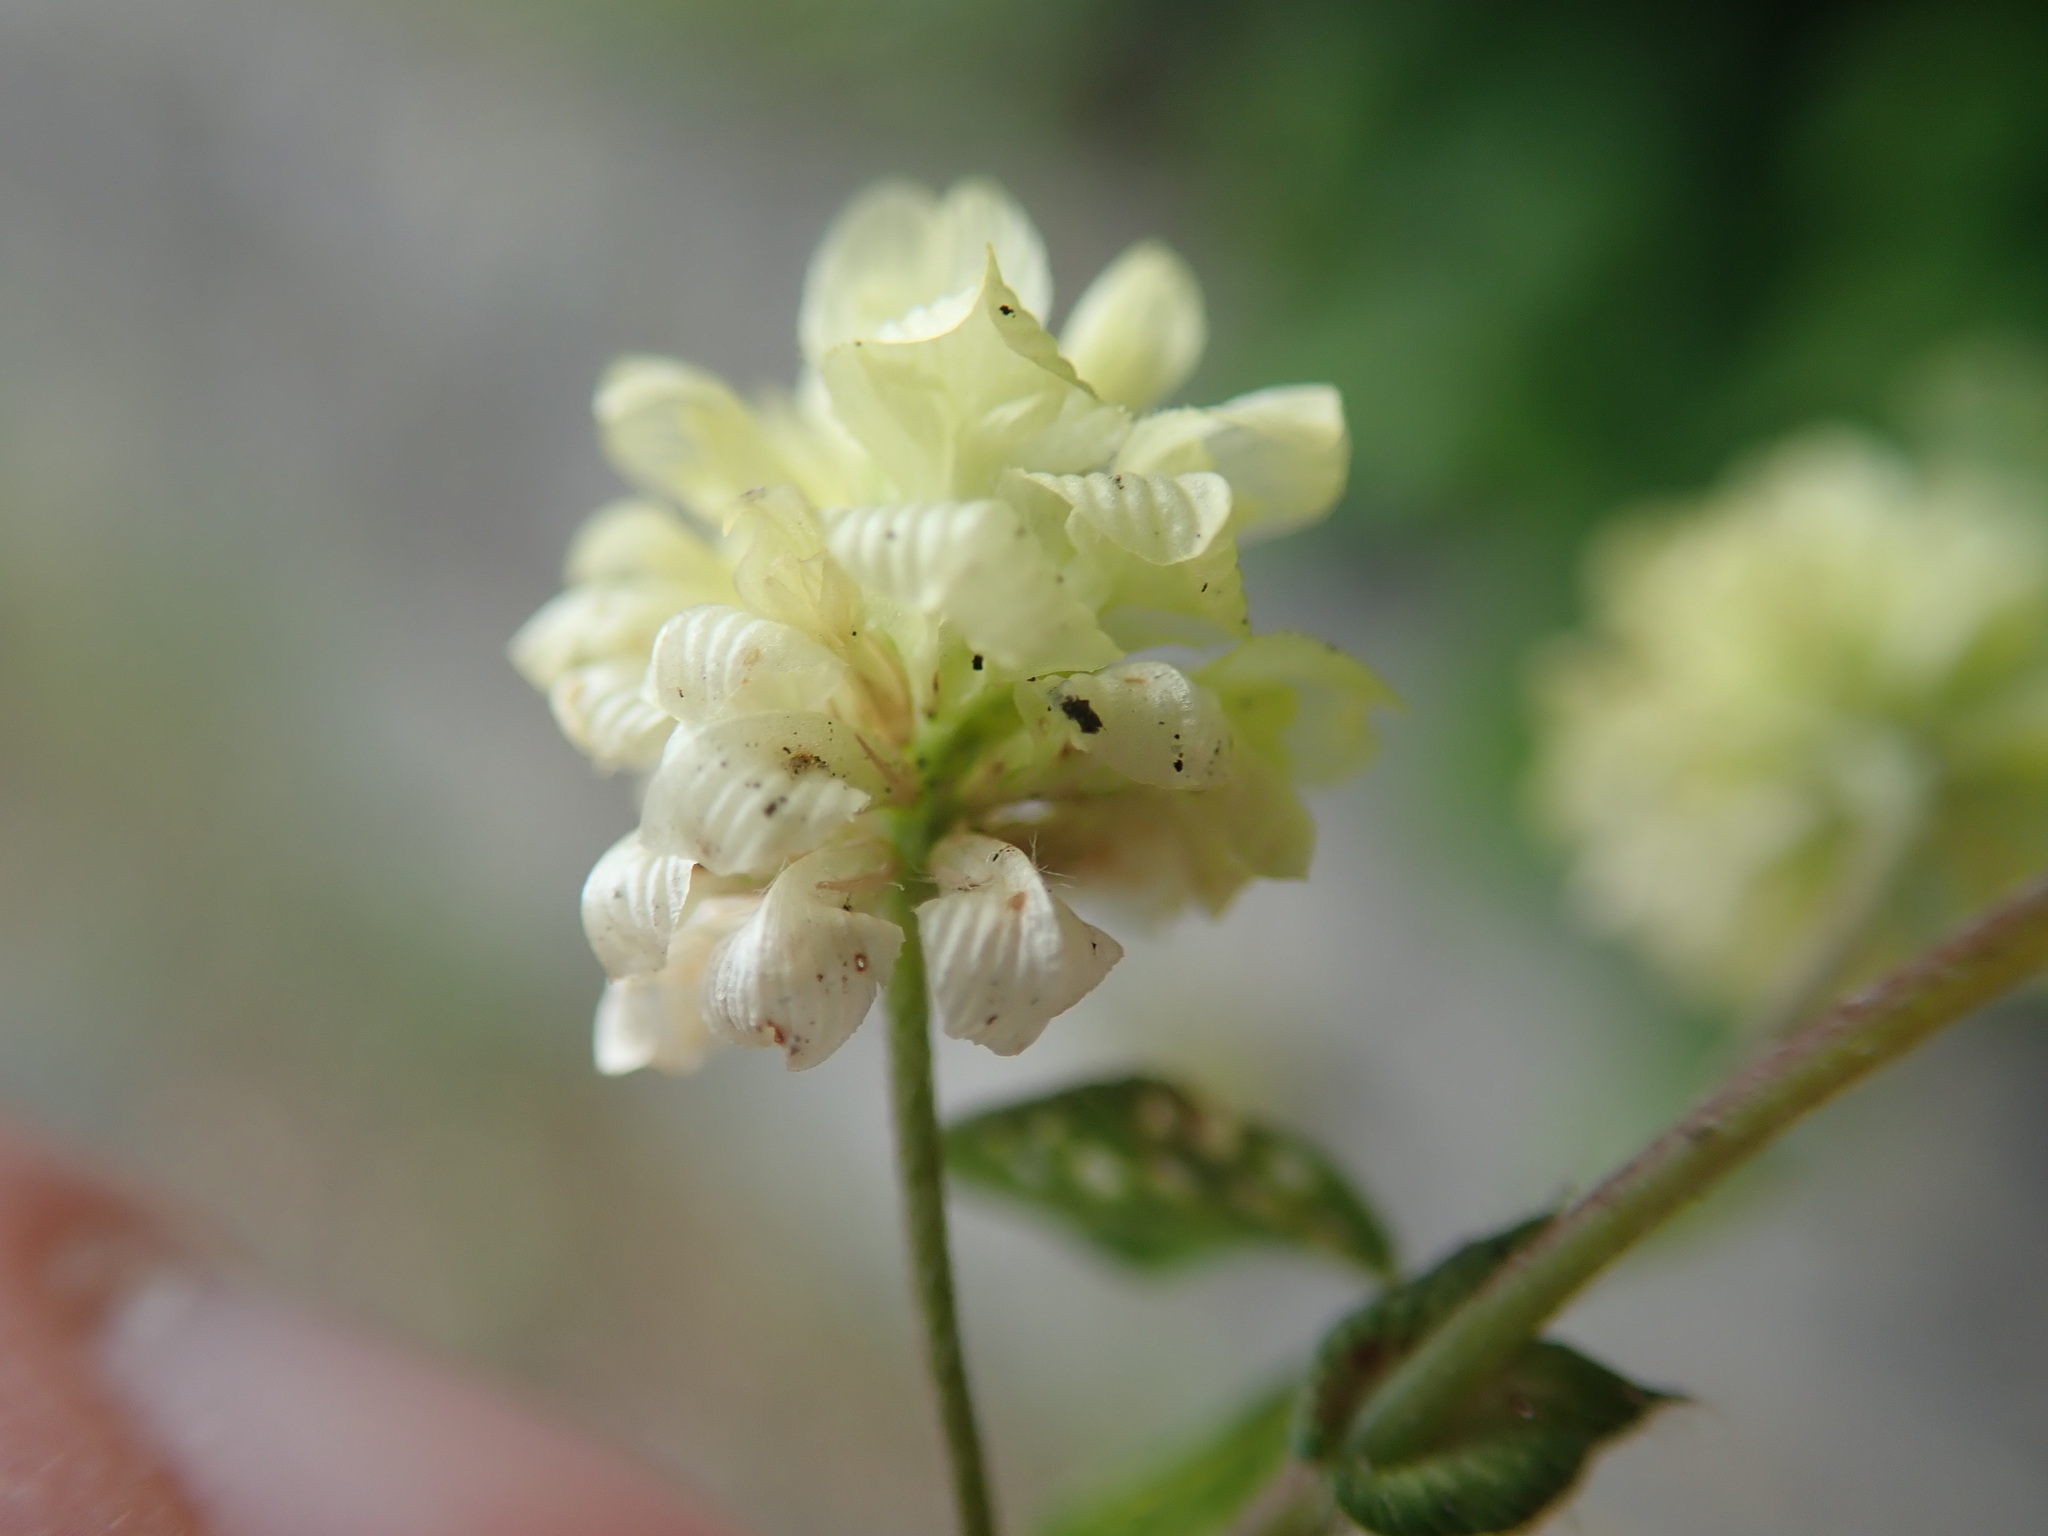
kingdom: Plantae
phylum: Tracheophyta
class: Magnoliopsida
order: Fabales
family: Fabaceae
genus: Trifolium
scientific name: Trifolium campestre
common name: Field clover
